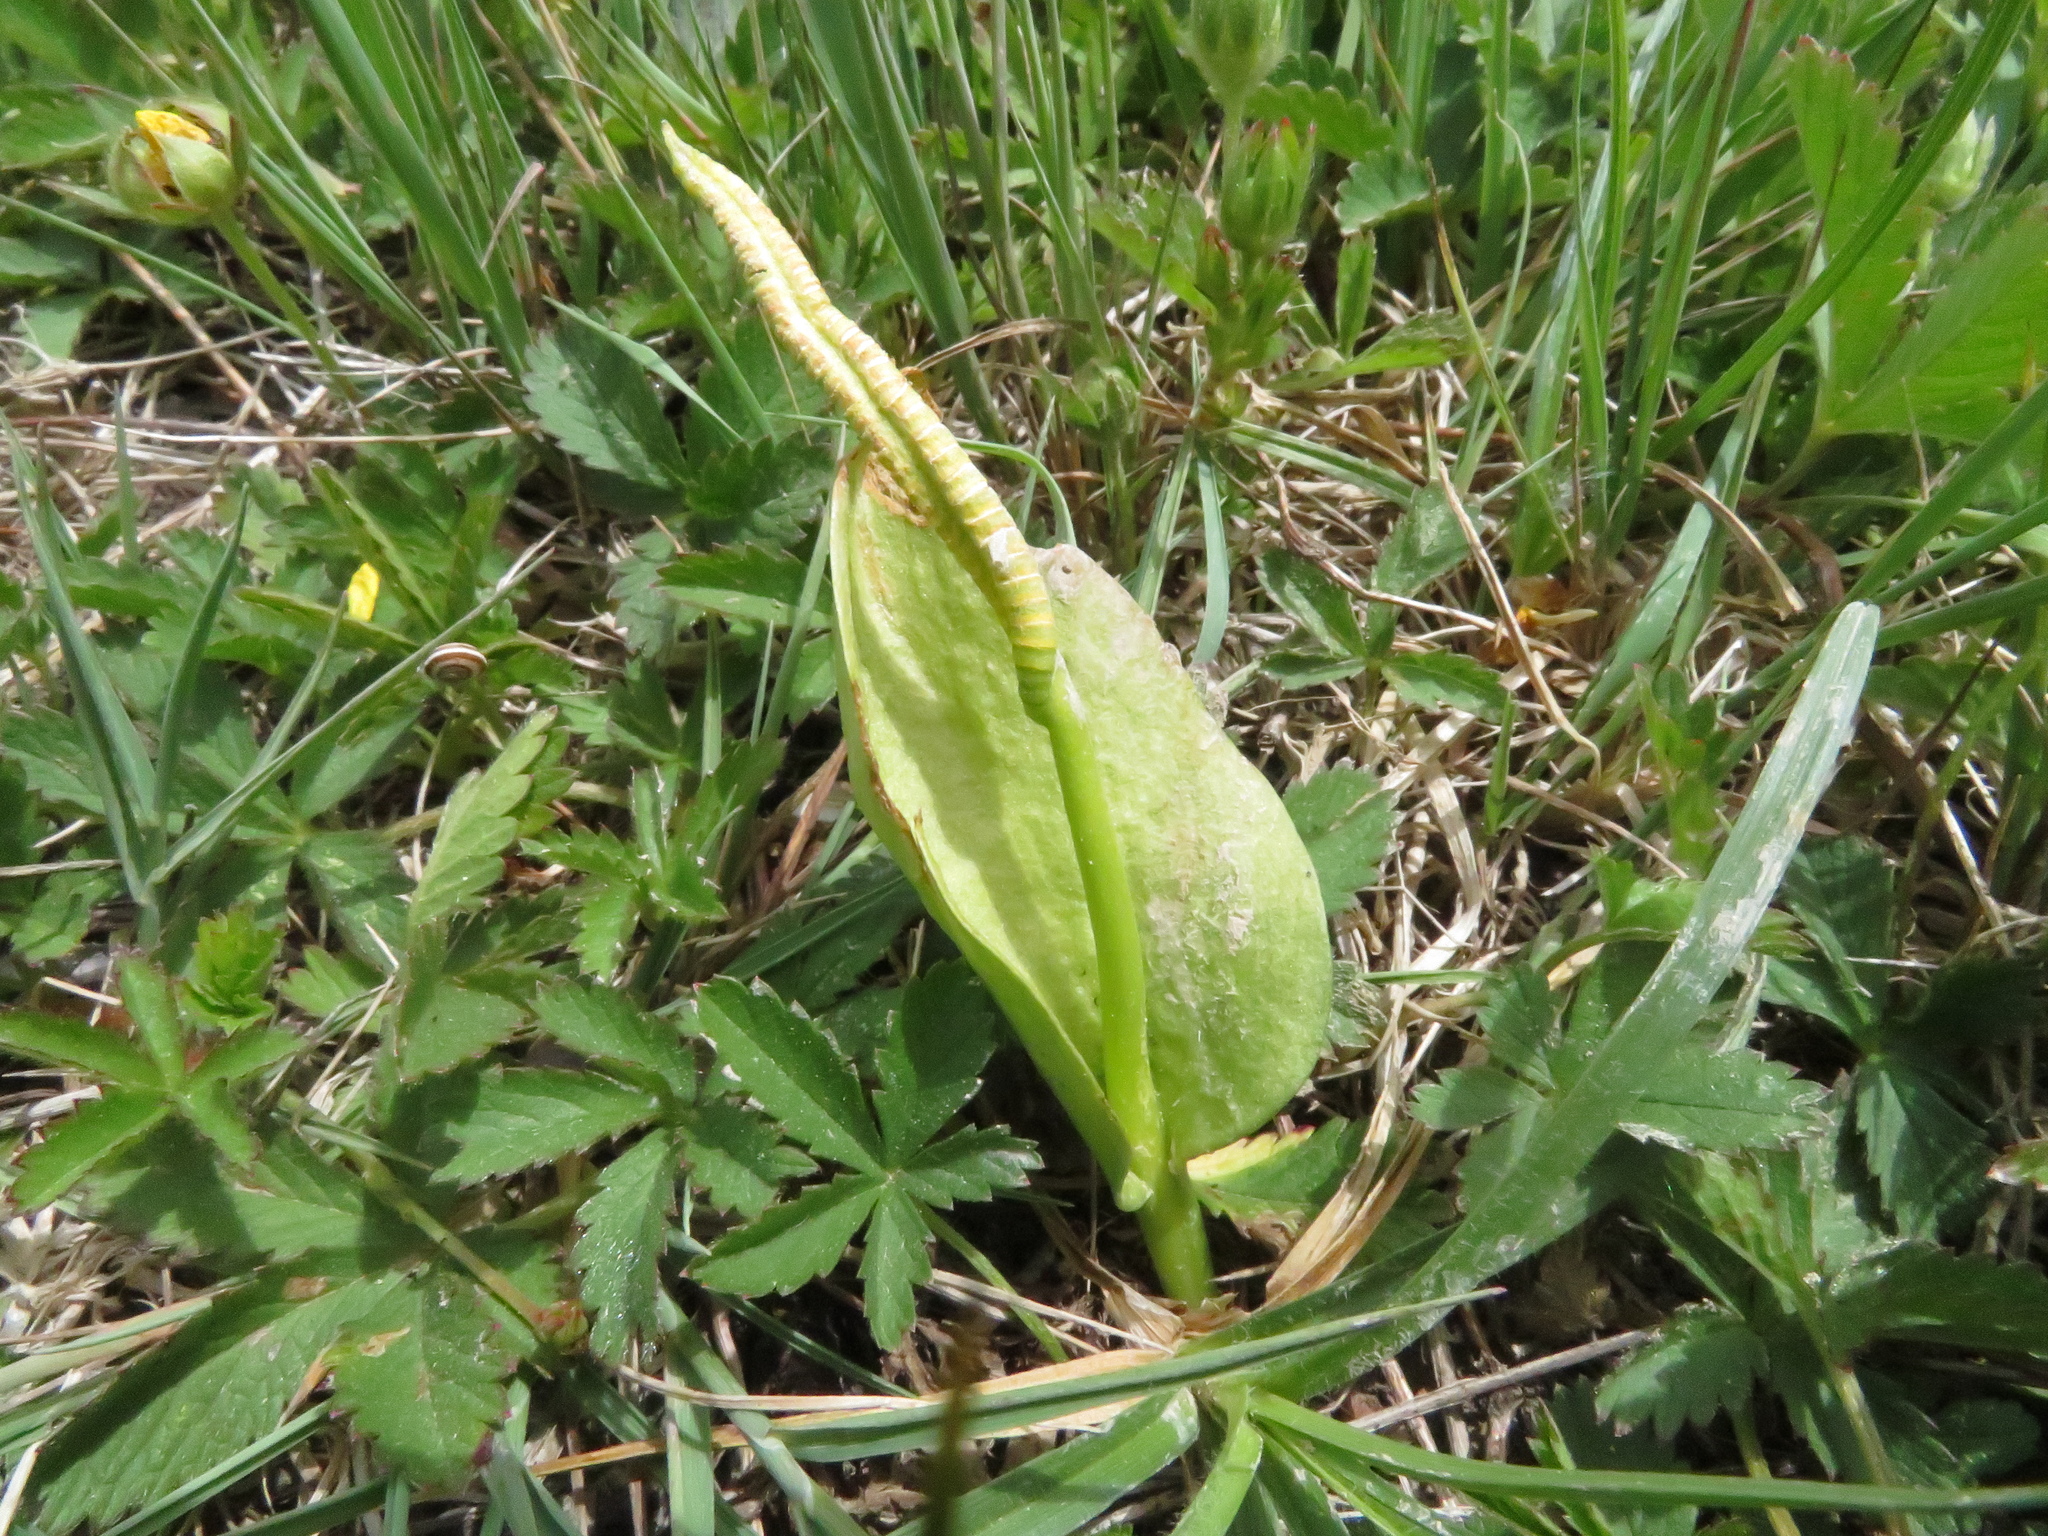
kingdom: Plantae
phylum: Tracheophyta
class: Polypodiopsida
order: Ophioglossales
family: Ophioglossaceae
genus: Ophioglossum
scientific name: Ophioglossum vulgatum
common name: Adder's-tongue
